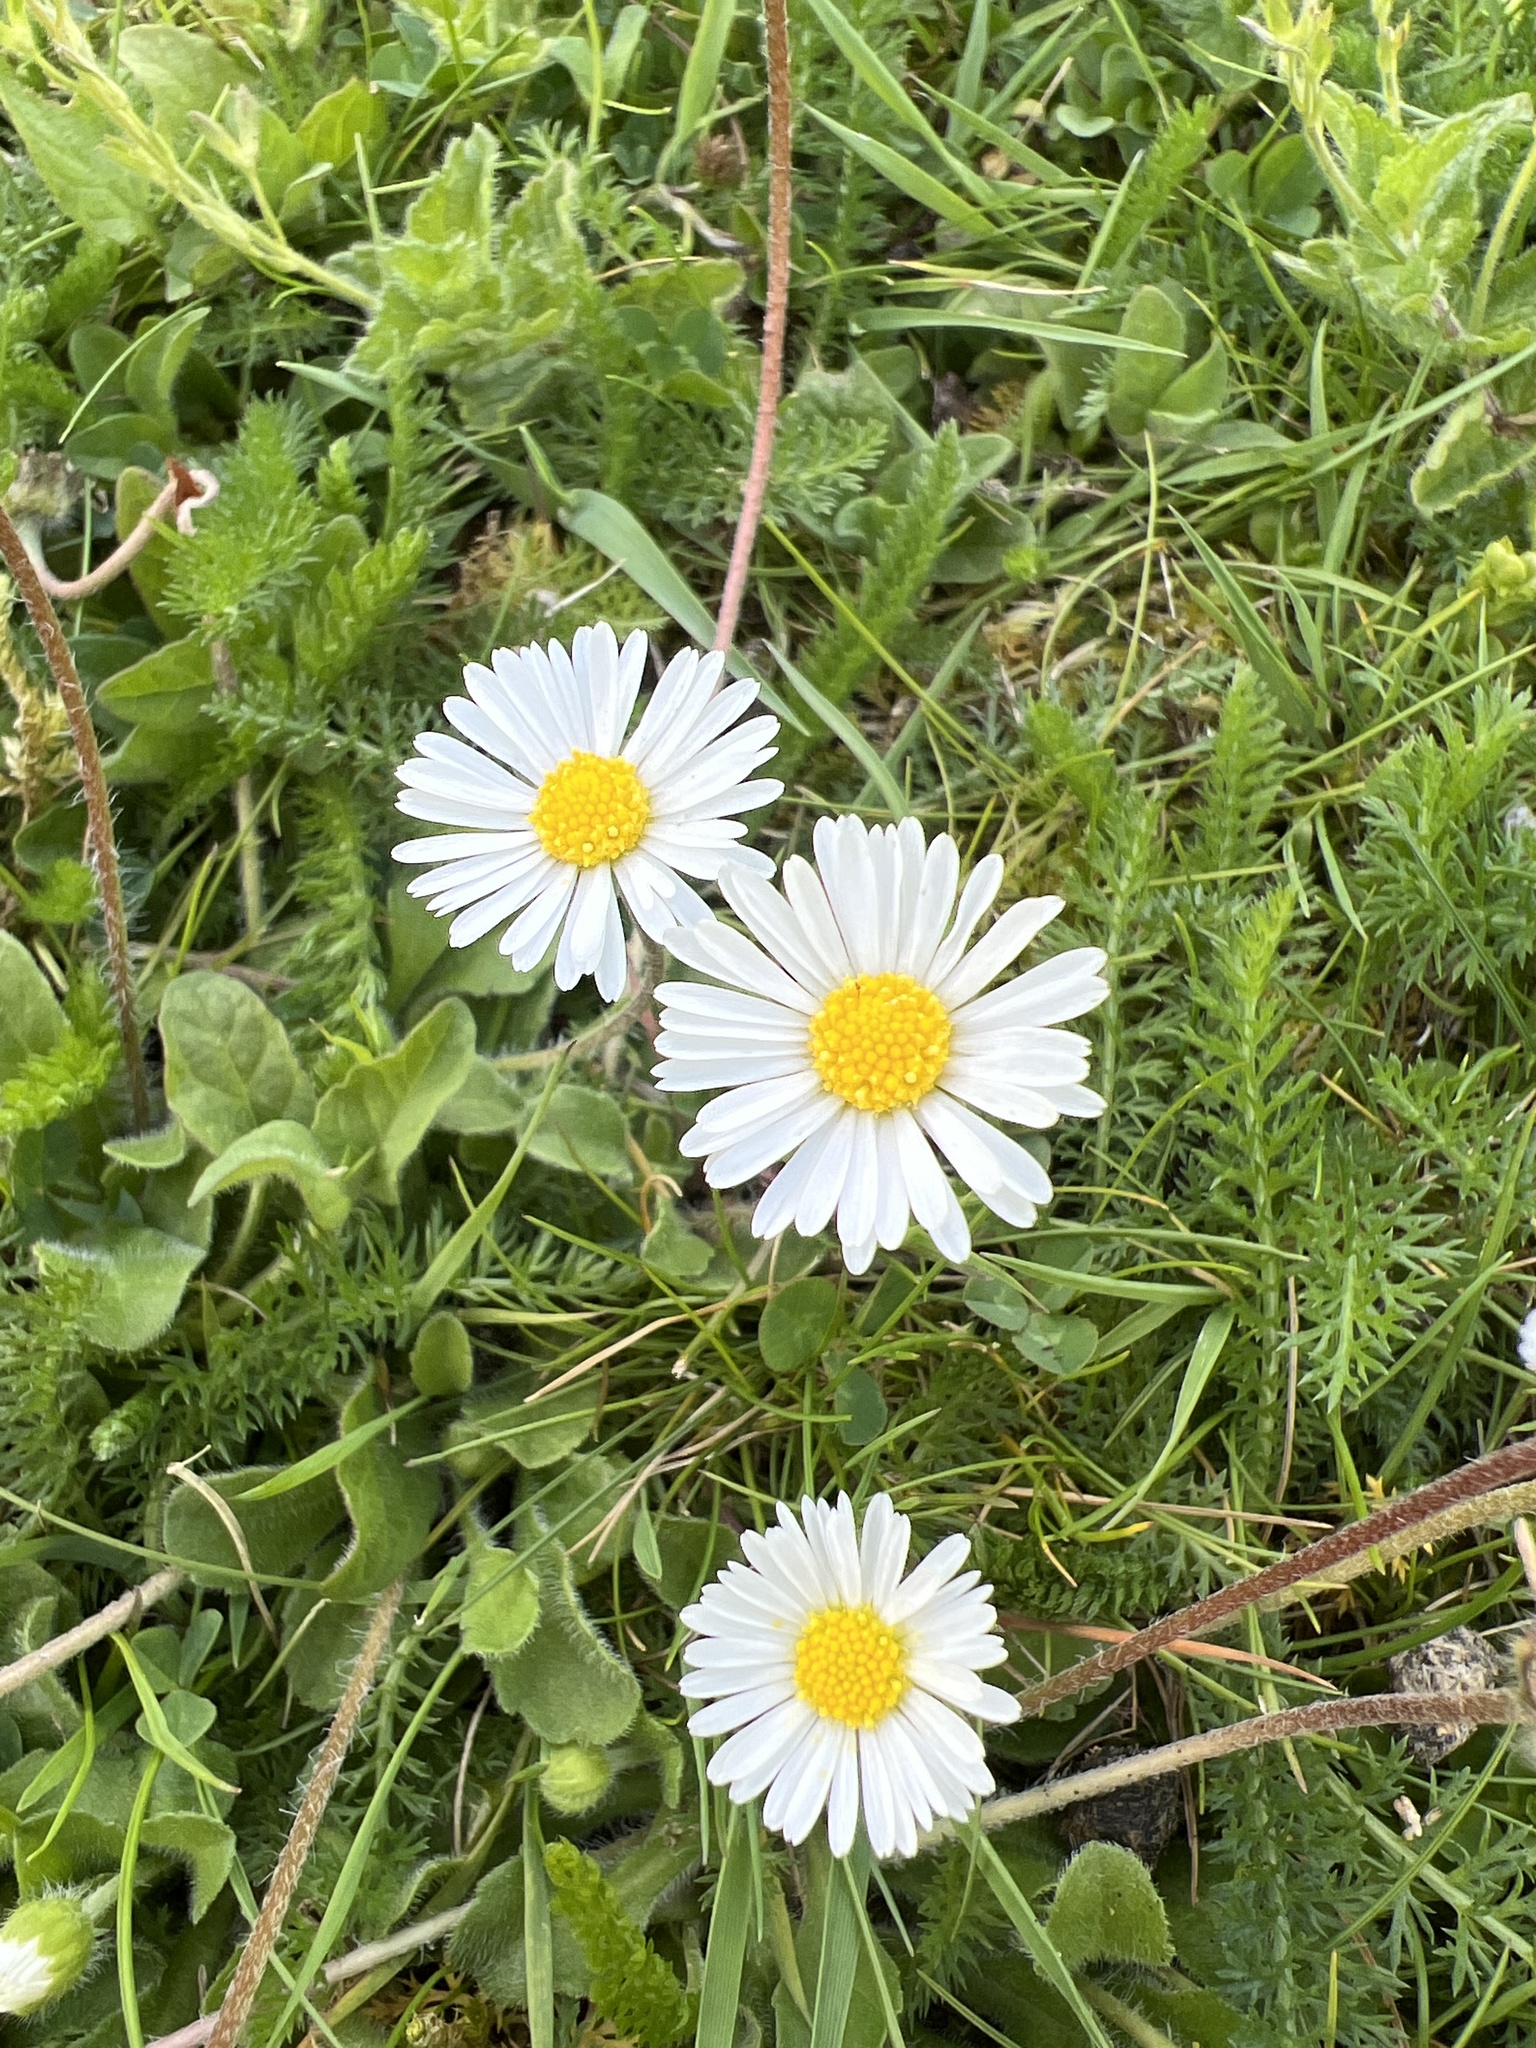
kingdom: Plantae
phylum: Tracheophyta
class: Magnoliopsida
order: Asterales
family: Asteraceae
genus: Bellis
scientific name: Bellis perennis
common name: Lawndaisy
